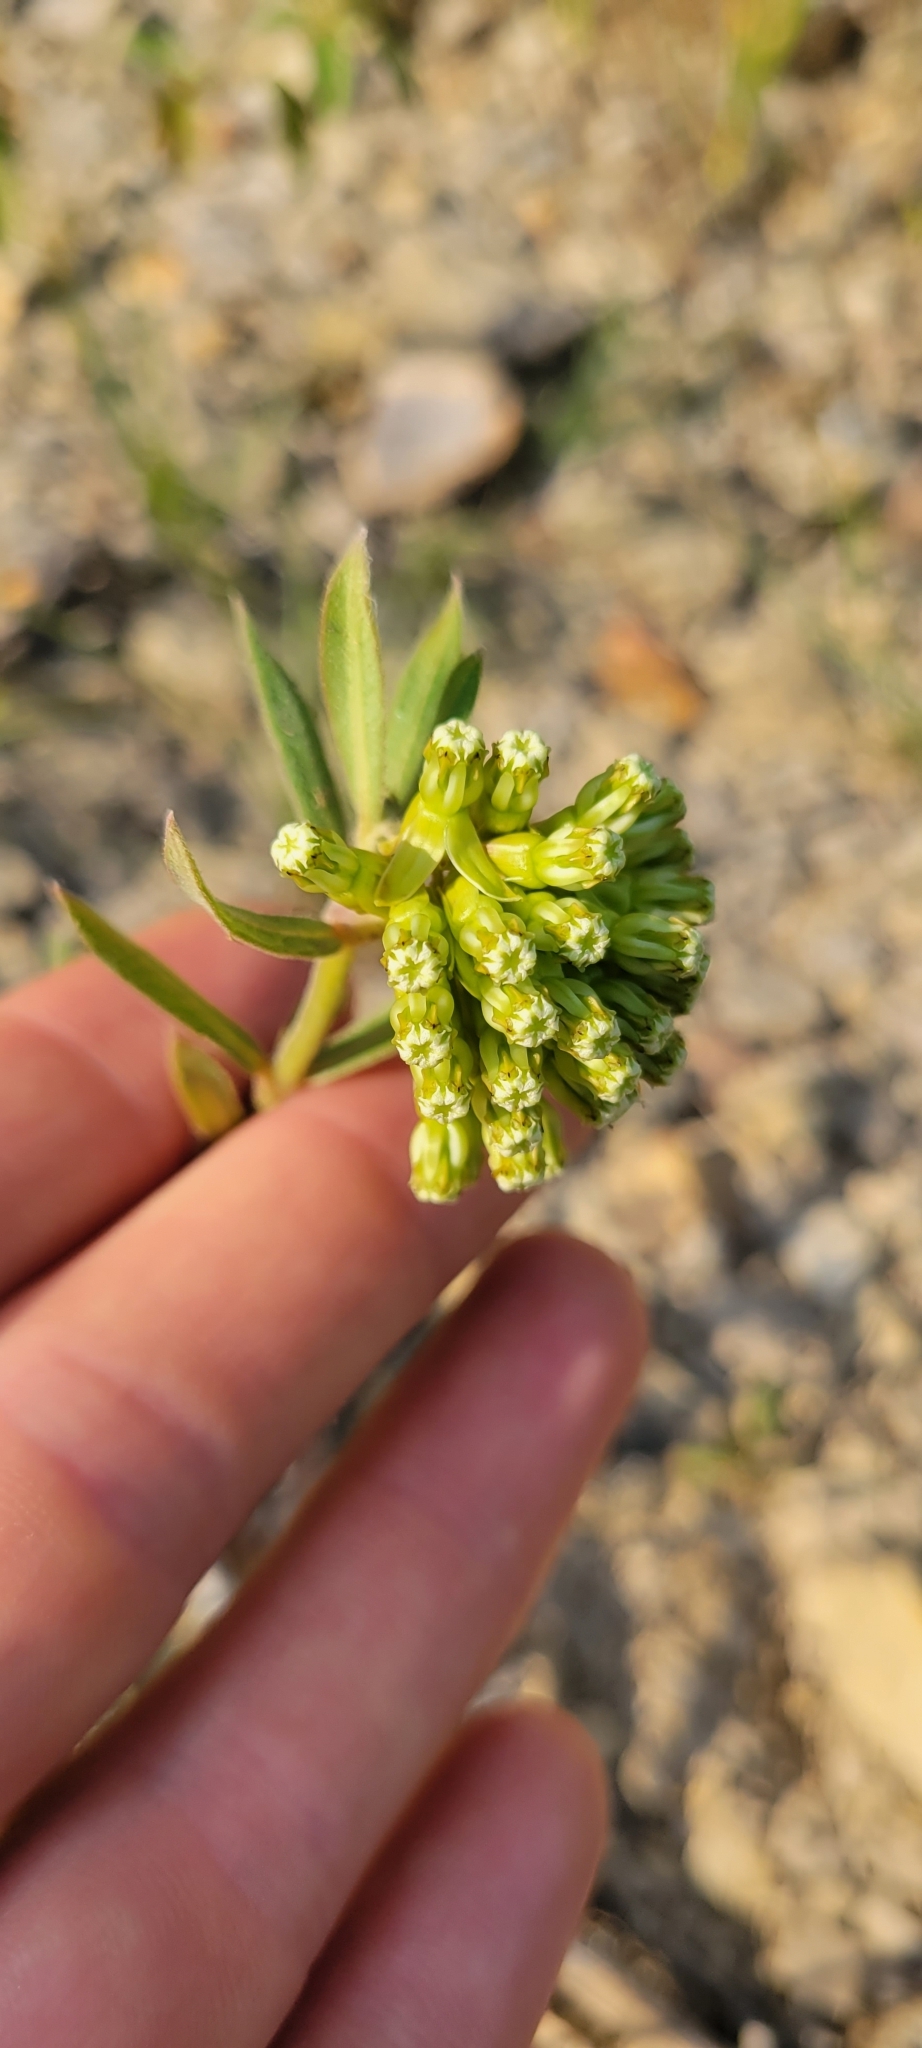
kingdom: Plantae
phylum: Tracheophyta
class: Magnoliopsida
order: Gentianales
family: Apocynaceae
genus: Asclepias
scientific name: Asclepias viridiflora
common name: Green comet milkweed
